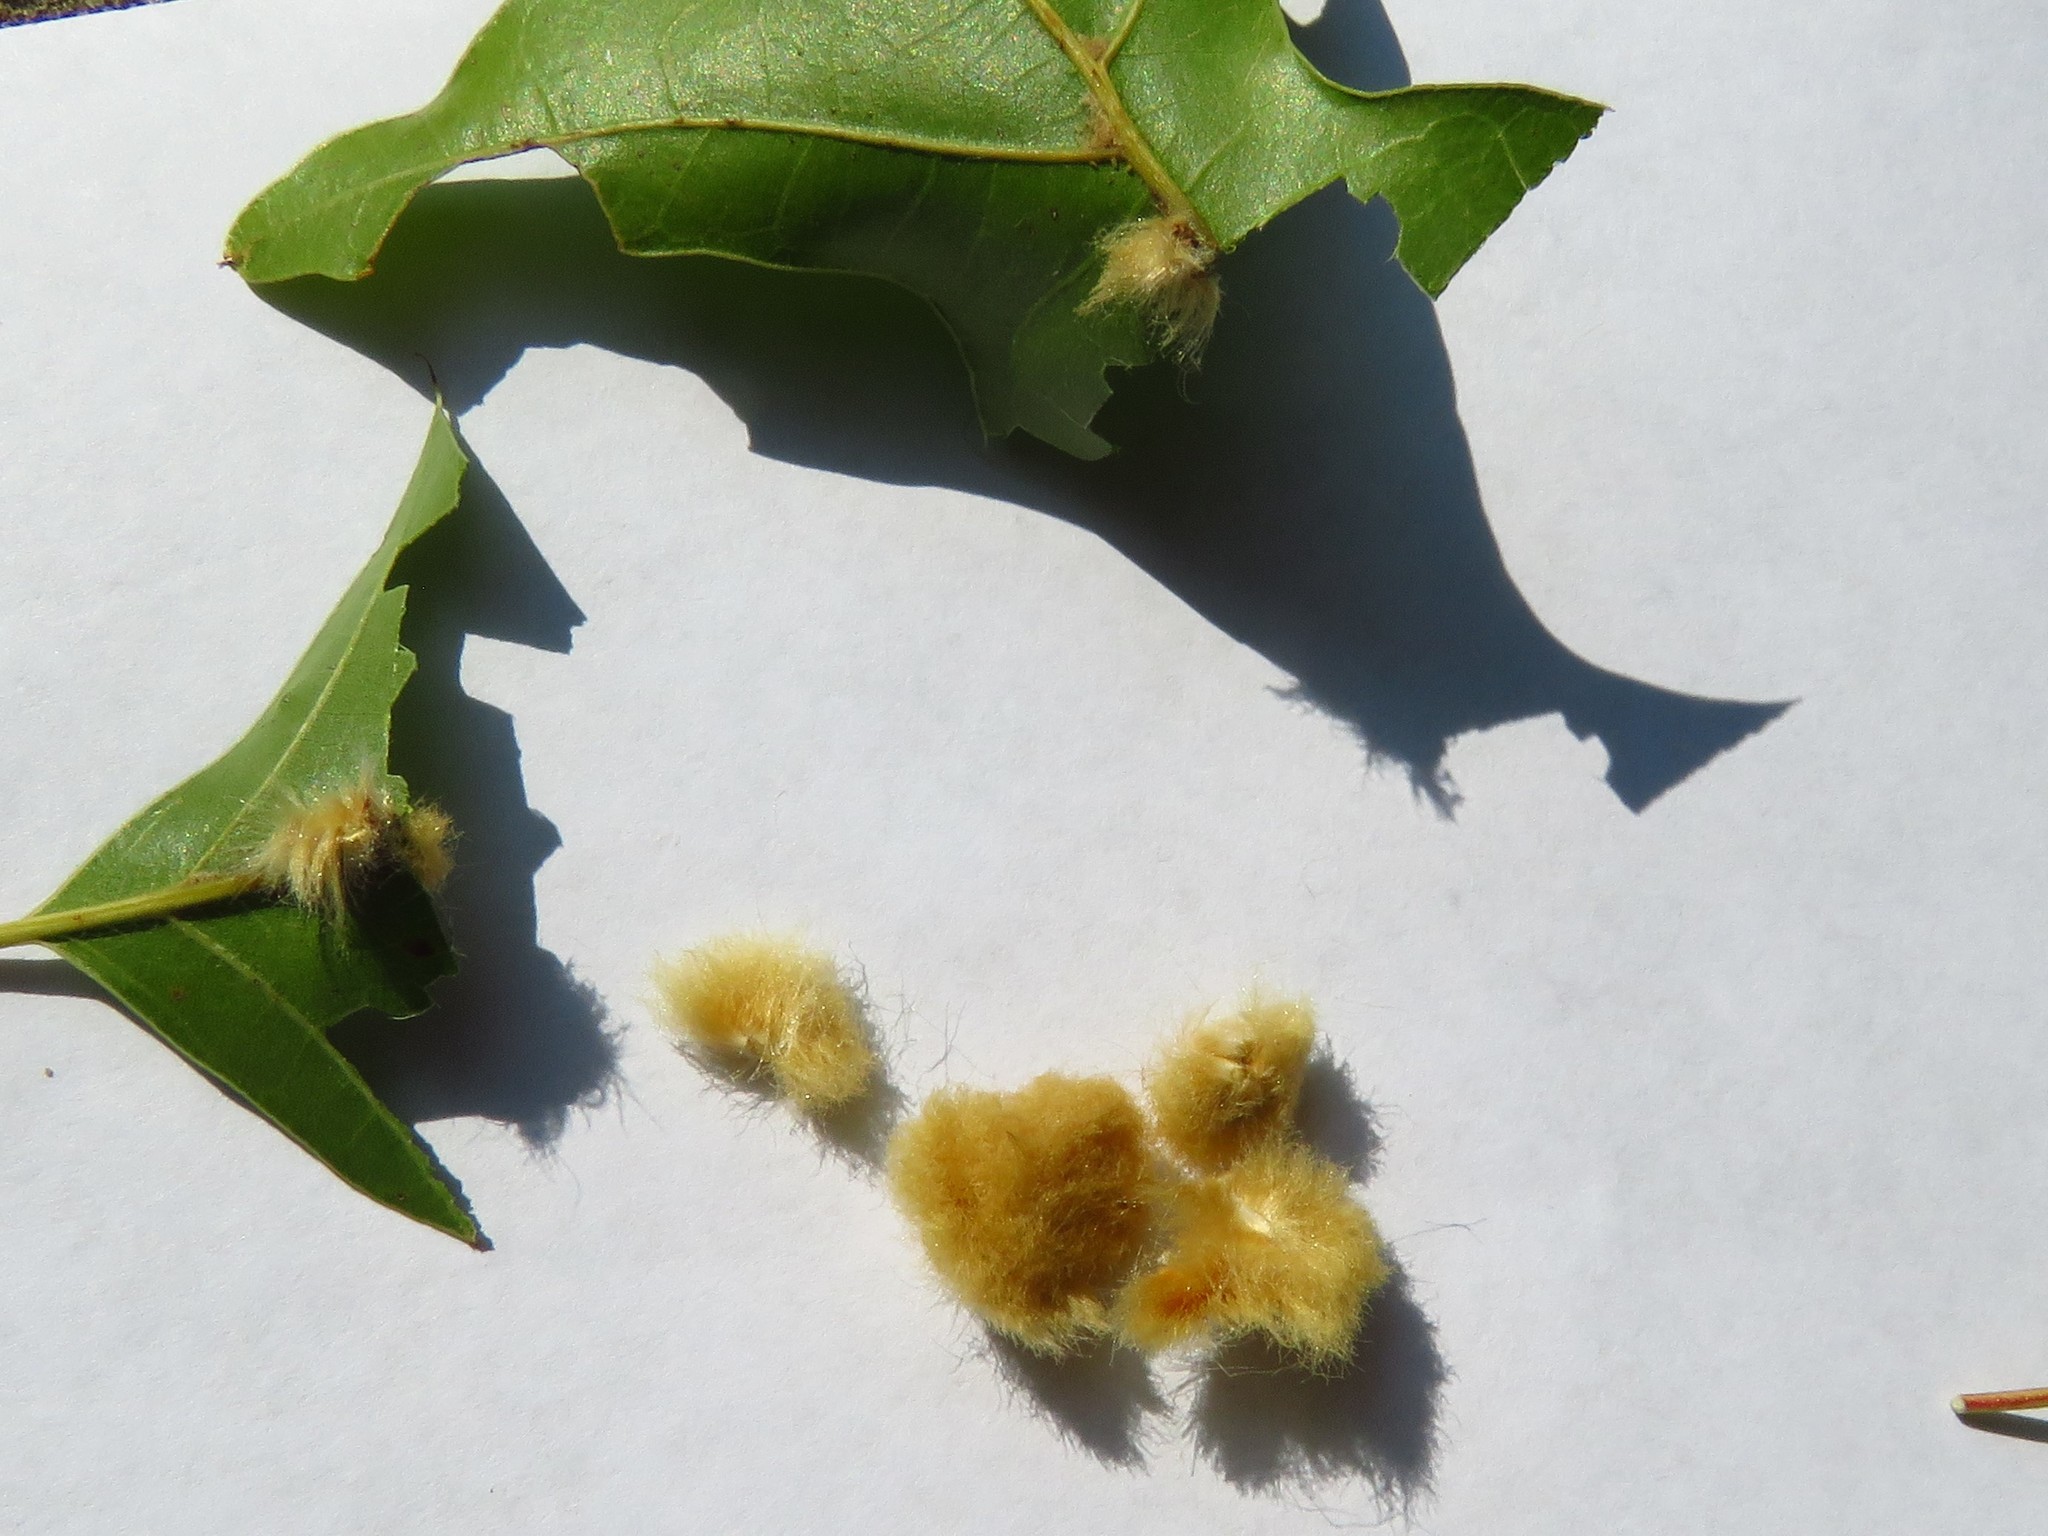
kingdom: Animalia
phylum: Arthropoda
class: Insecta
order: Hymenoptera
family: Cynipidae
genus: Callirhytis
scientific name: Callirhytis
